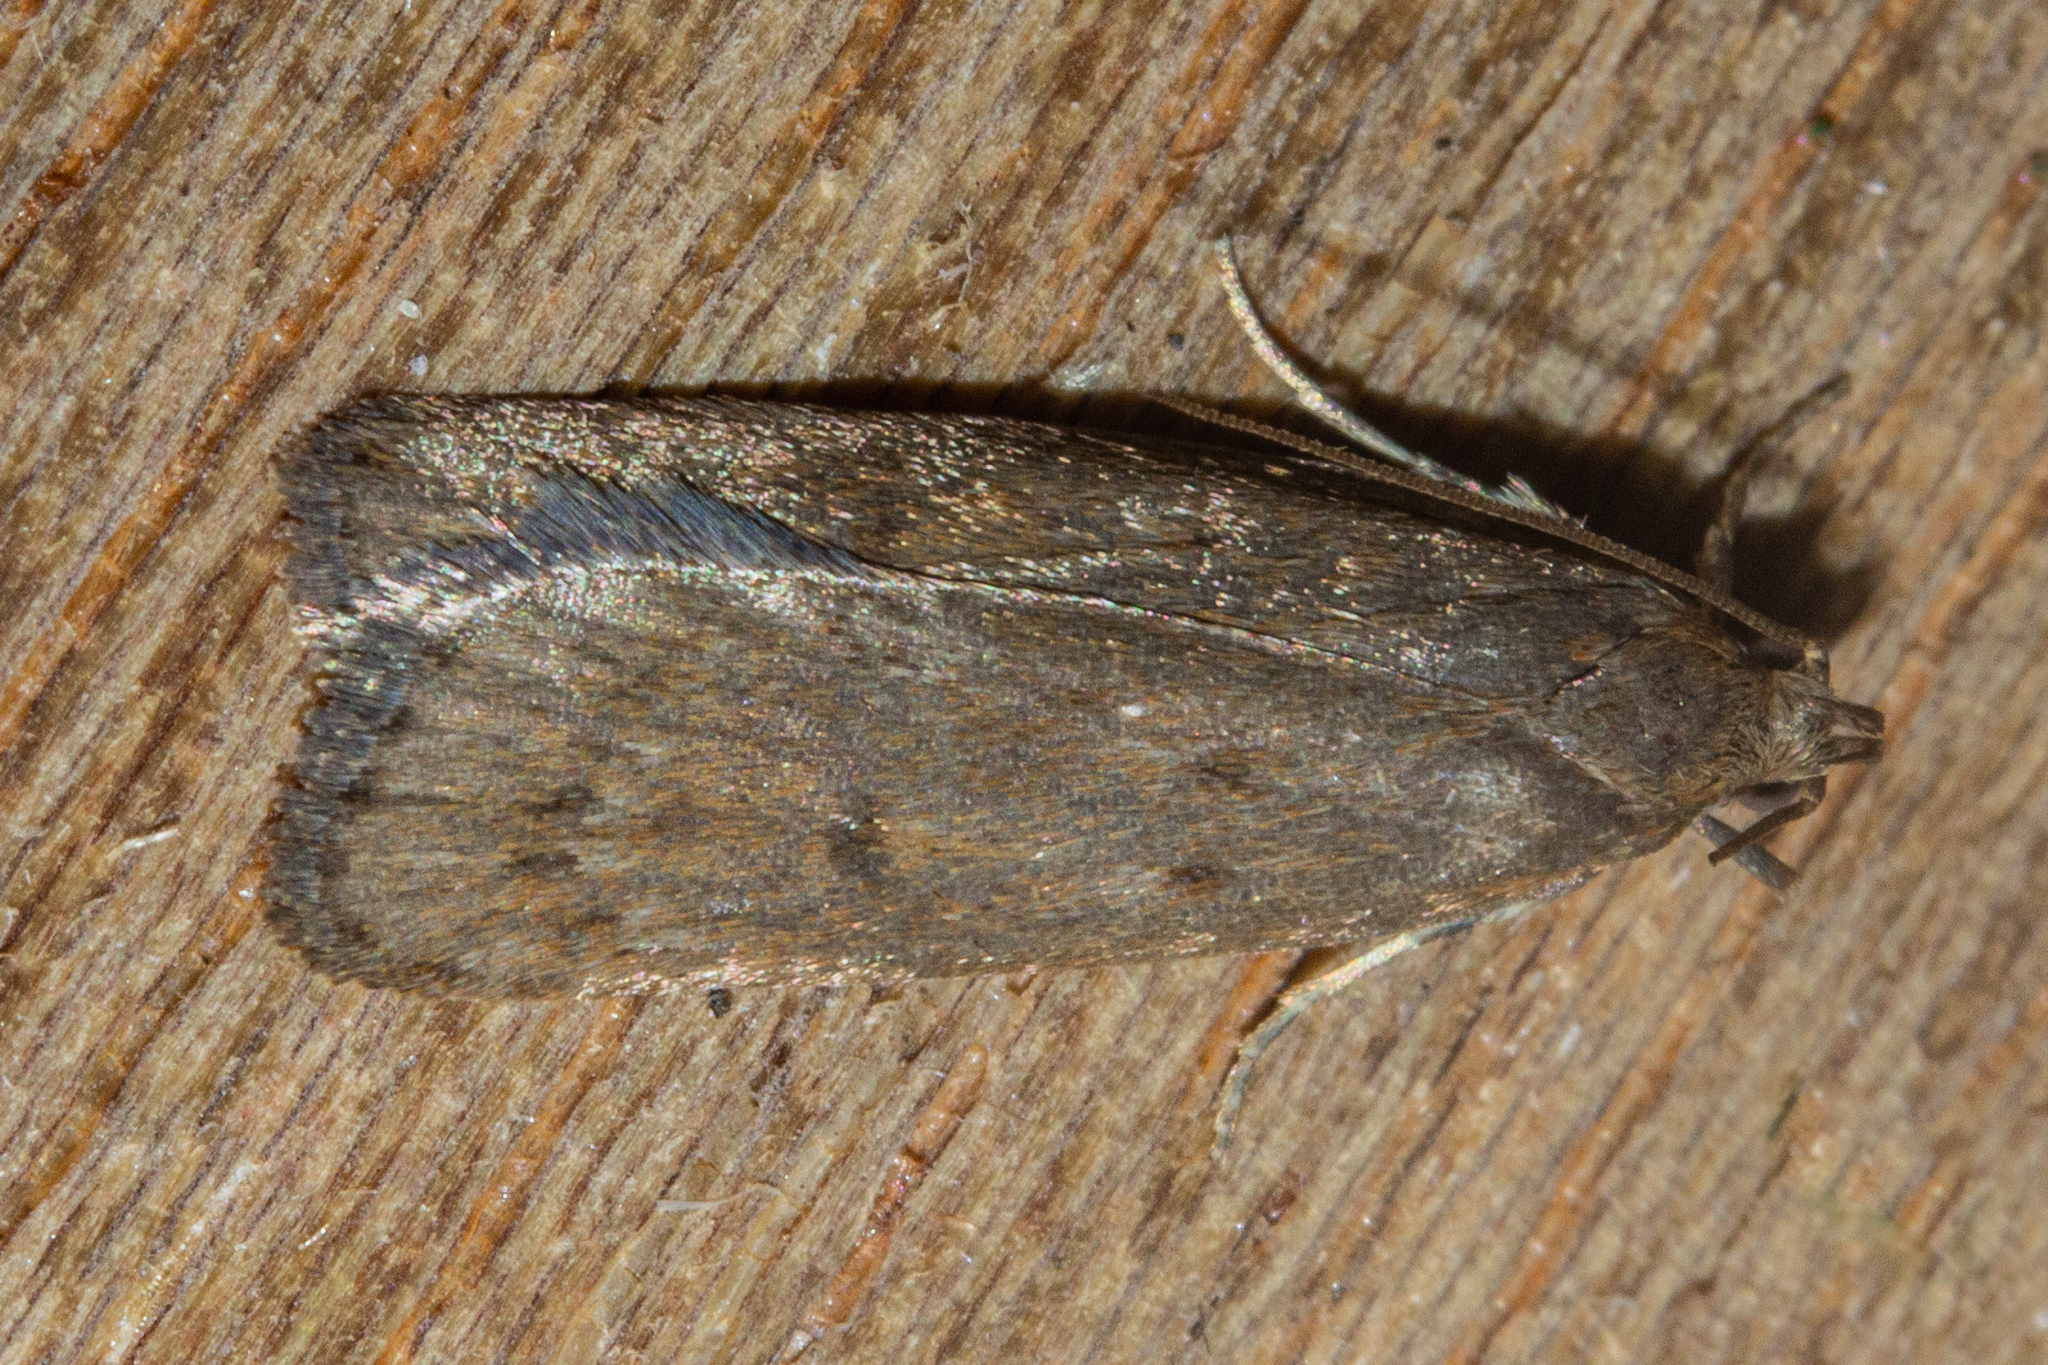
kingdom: Animalia
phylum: Arthropoda
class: Insecta
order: Lepidoptera
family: Depressariidae
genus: Phaeosaces
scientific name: Phaeosaces apocrypta
